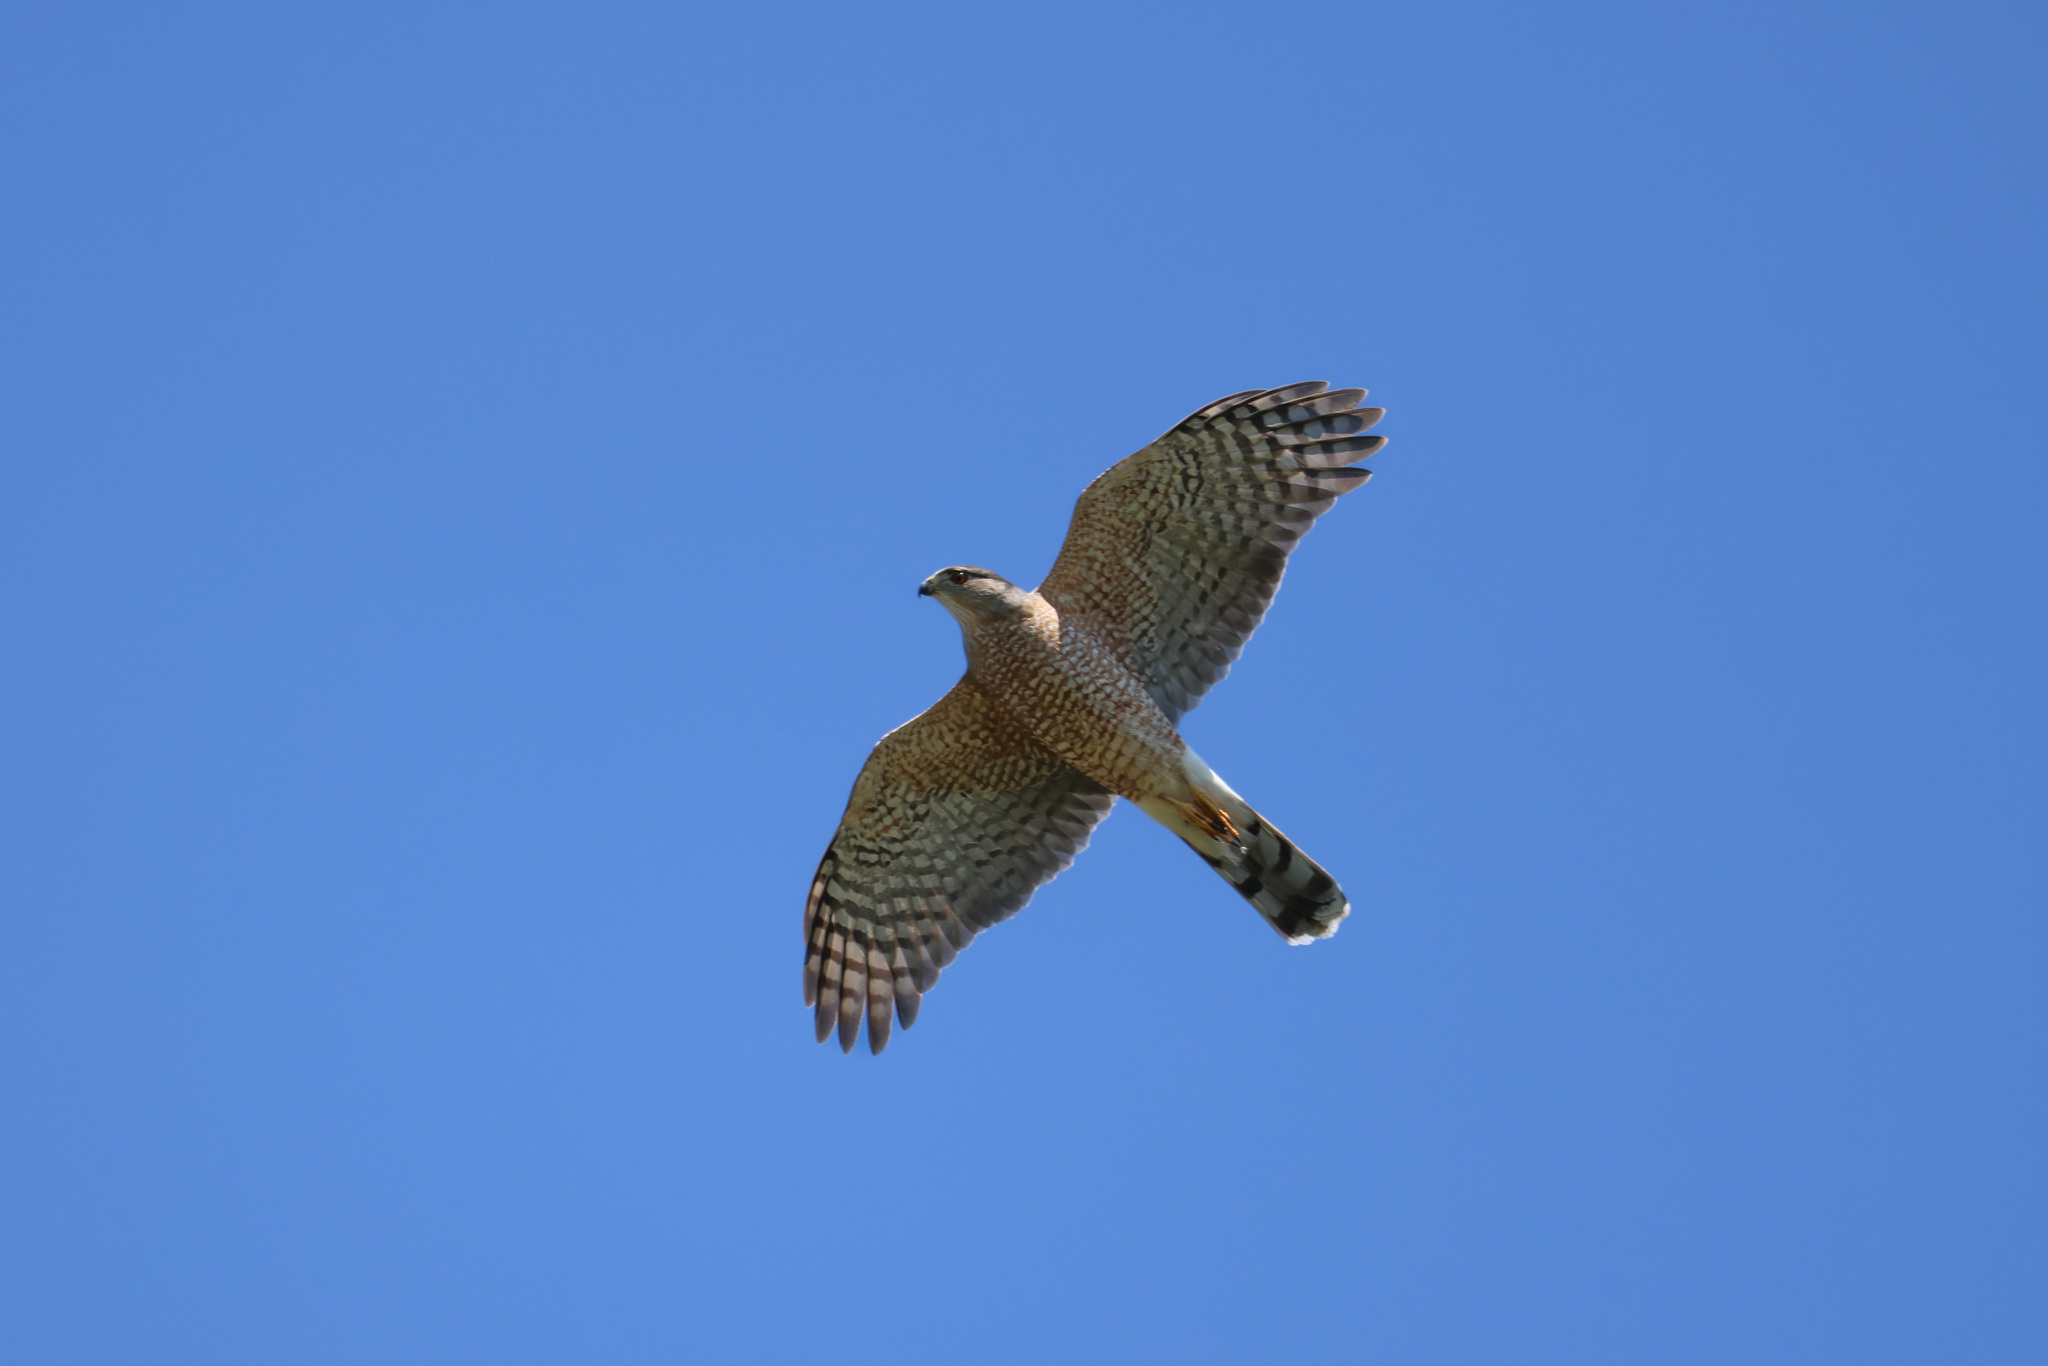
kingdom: Animalia
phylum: Chordata
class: Aves
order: Accipitriformes
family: Accipitridae
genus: Accipiter
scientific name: Accipiter cooperii
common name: Cooper's hawk
